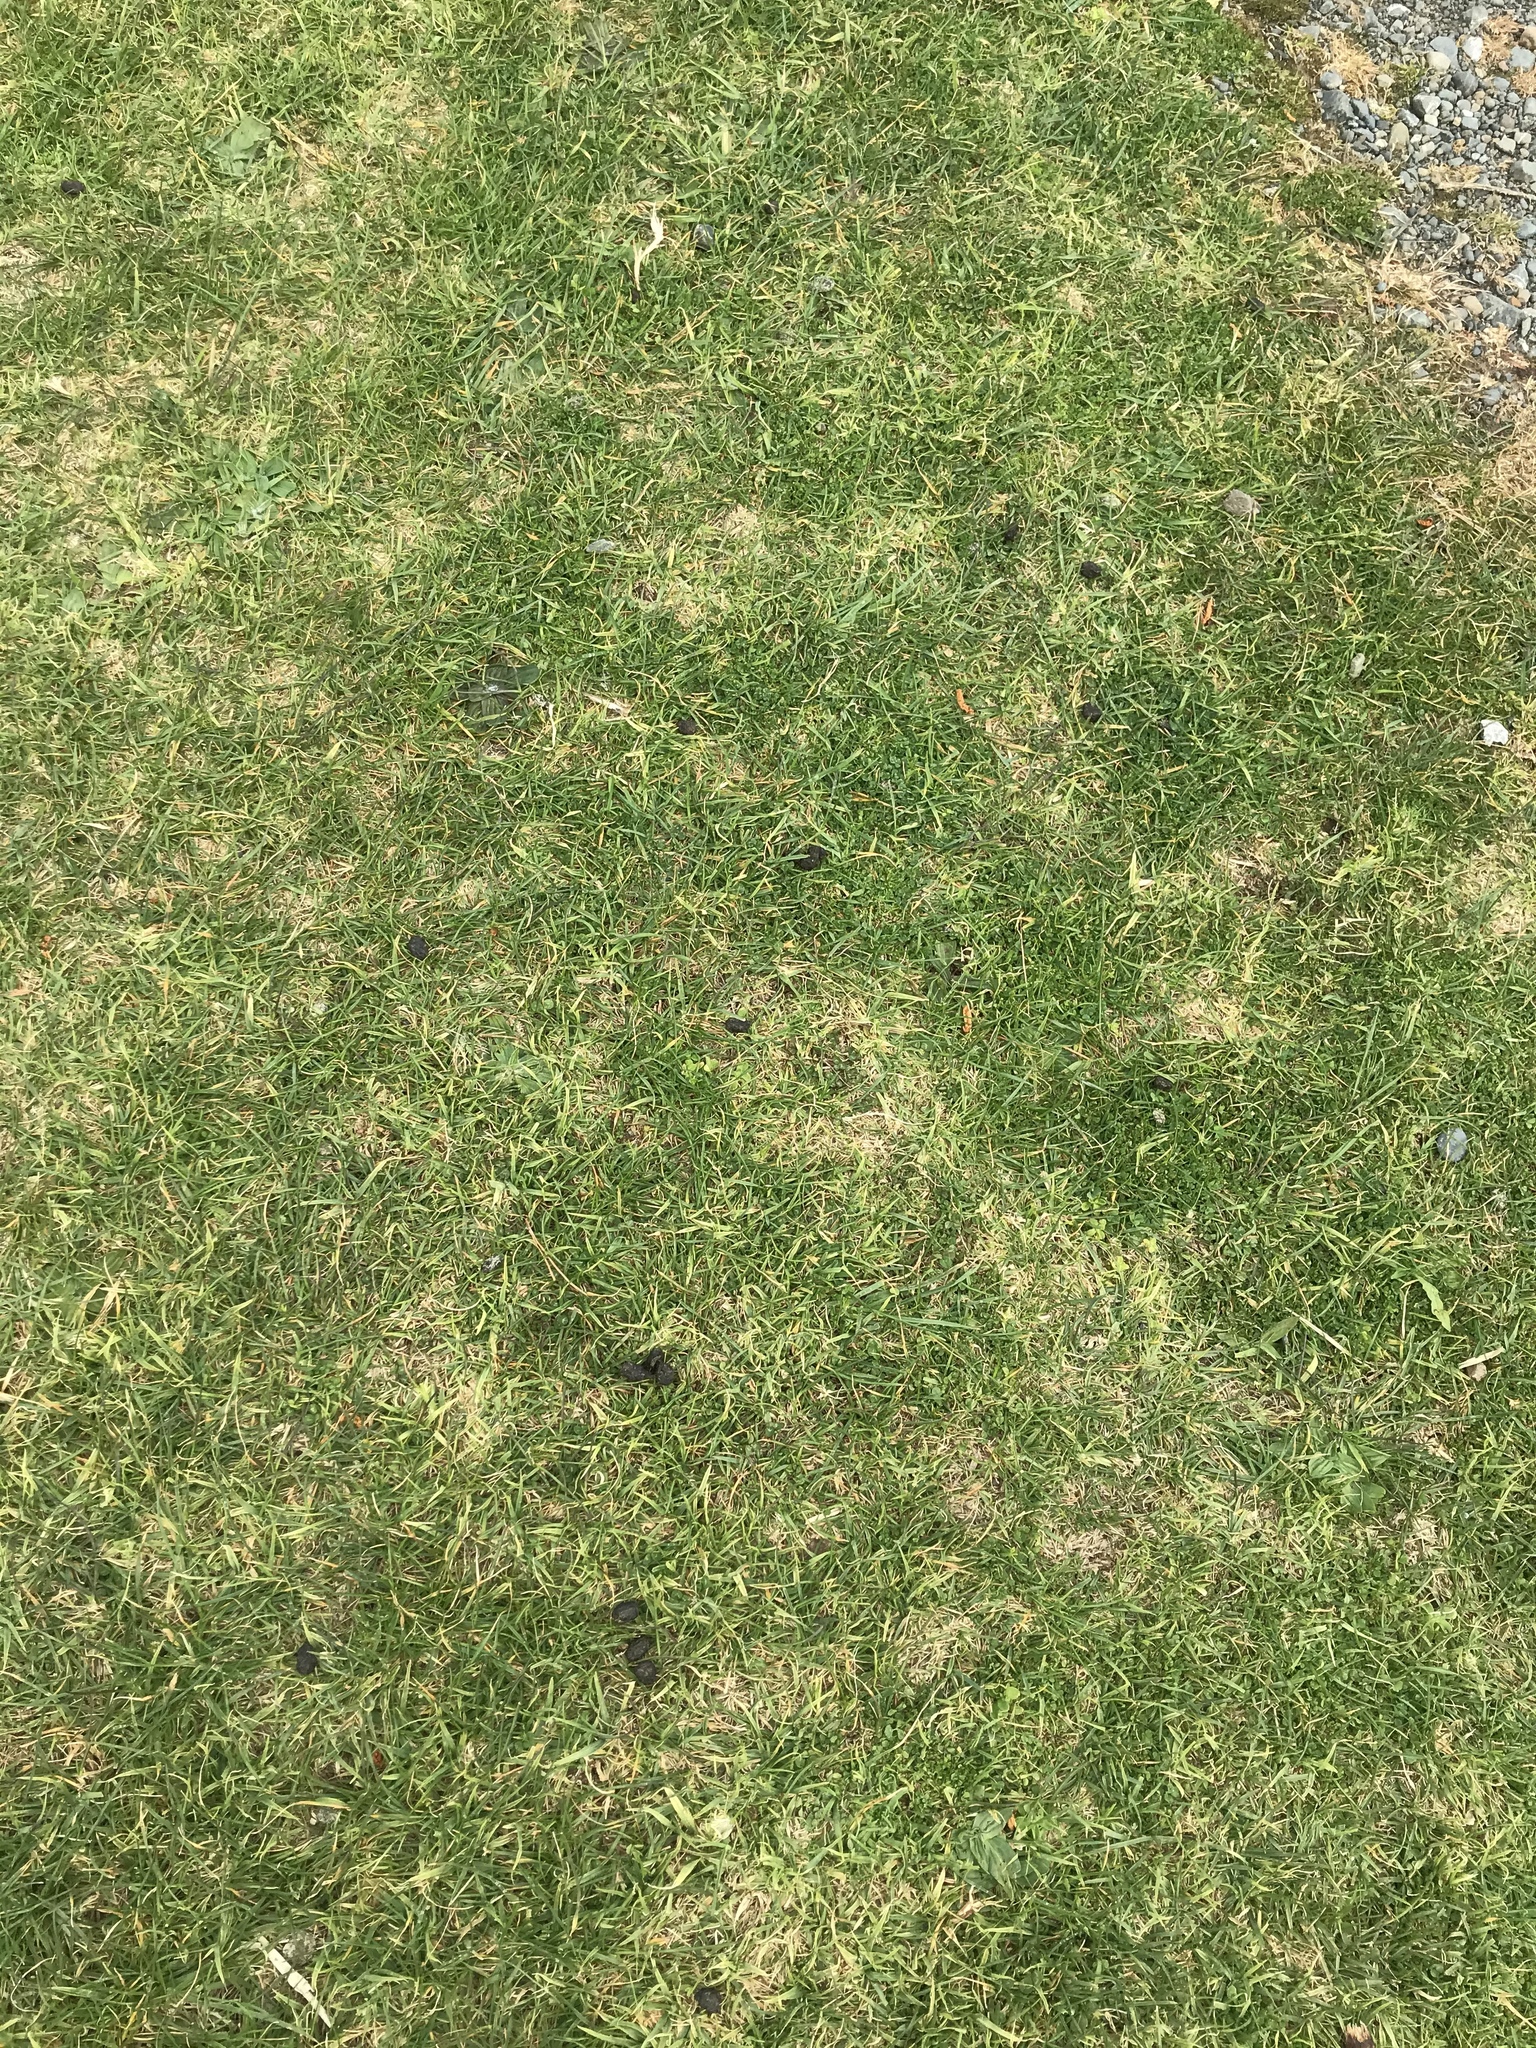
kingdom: Animalia
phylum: Chordata
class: Mammalia
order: Lagomorpha
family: Leporidae
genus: Oryctolagus
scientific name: Oryctolagus cuniculus
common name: European rabbit
